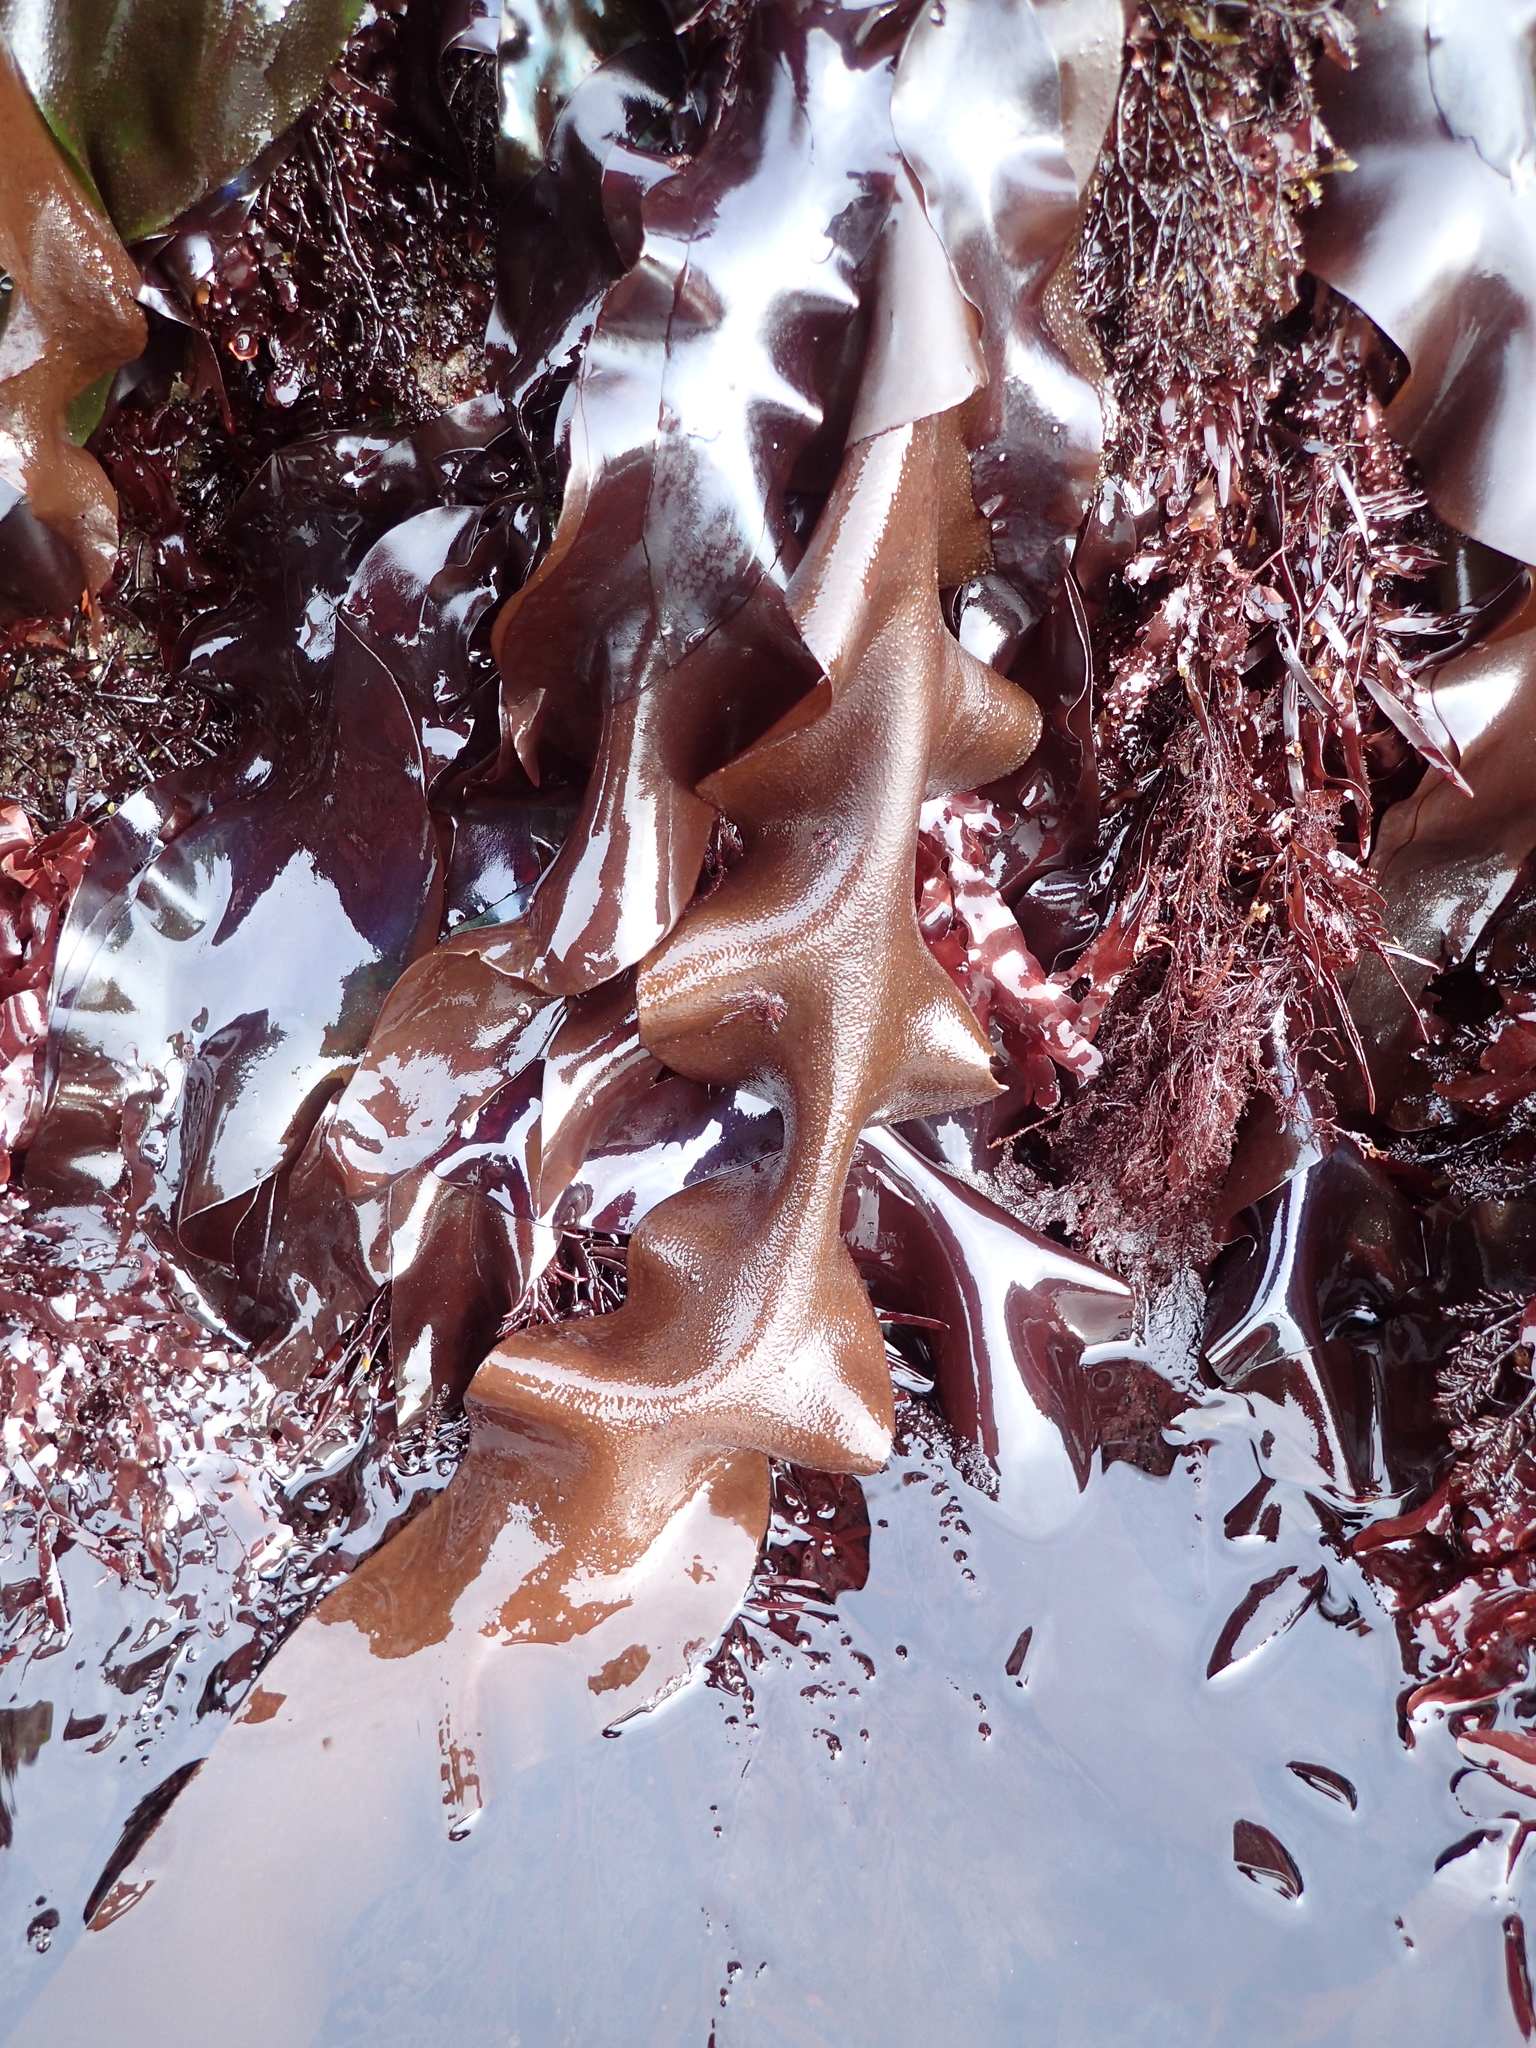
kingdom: Plantae
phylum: Rhodophyta
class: Florideophyceae
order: Gigartinales
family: Gigartinaceae
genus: Mazzaella
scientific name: Mazzaella splendens
